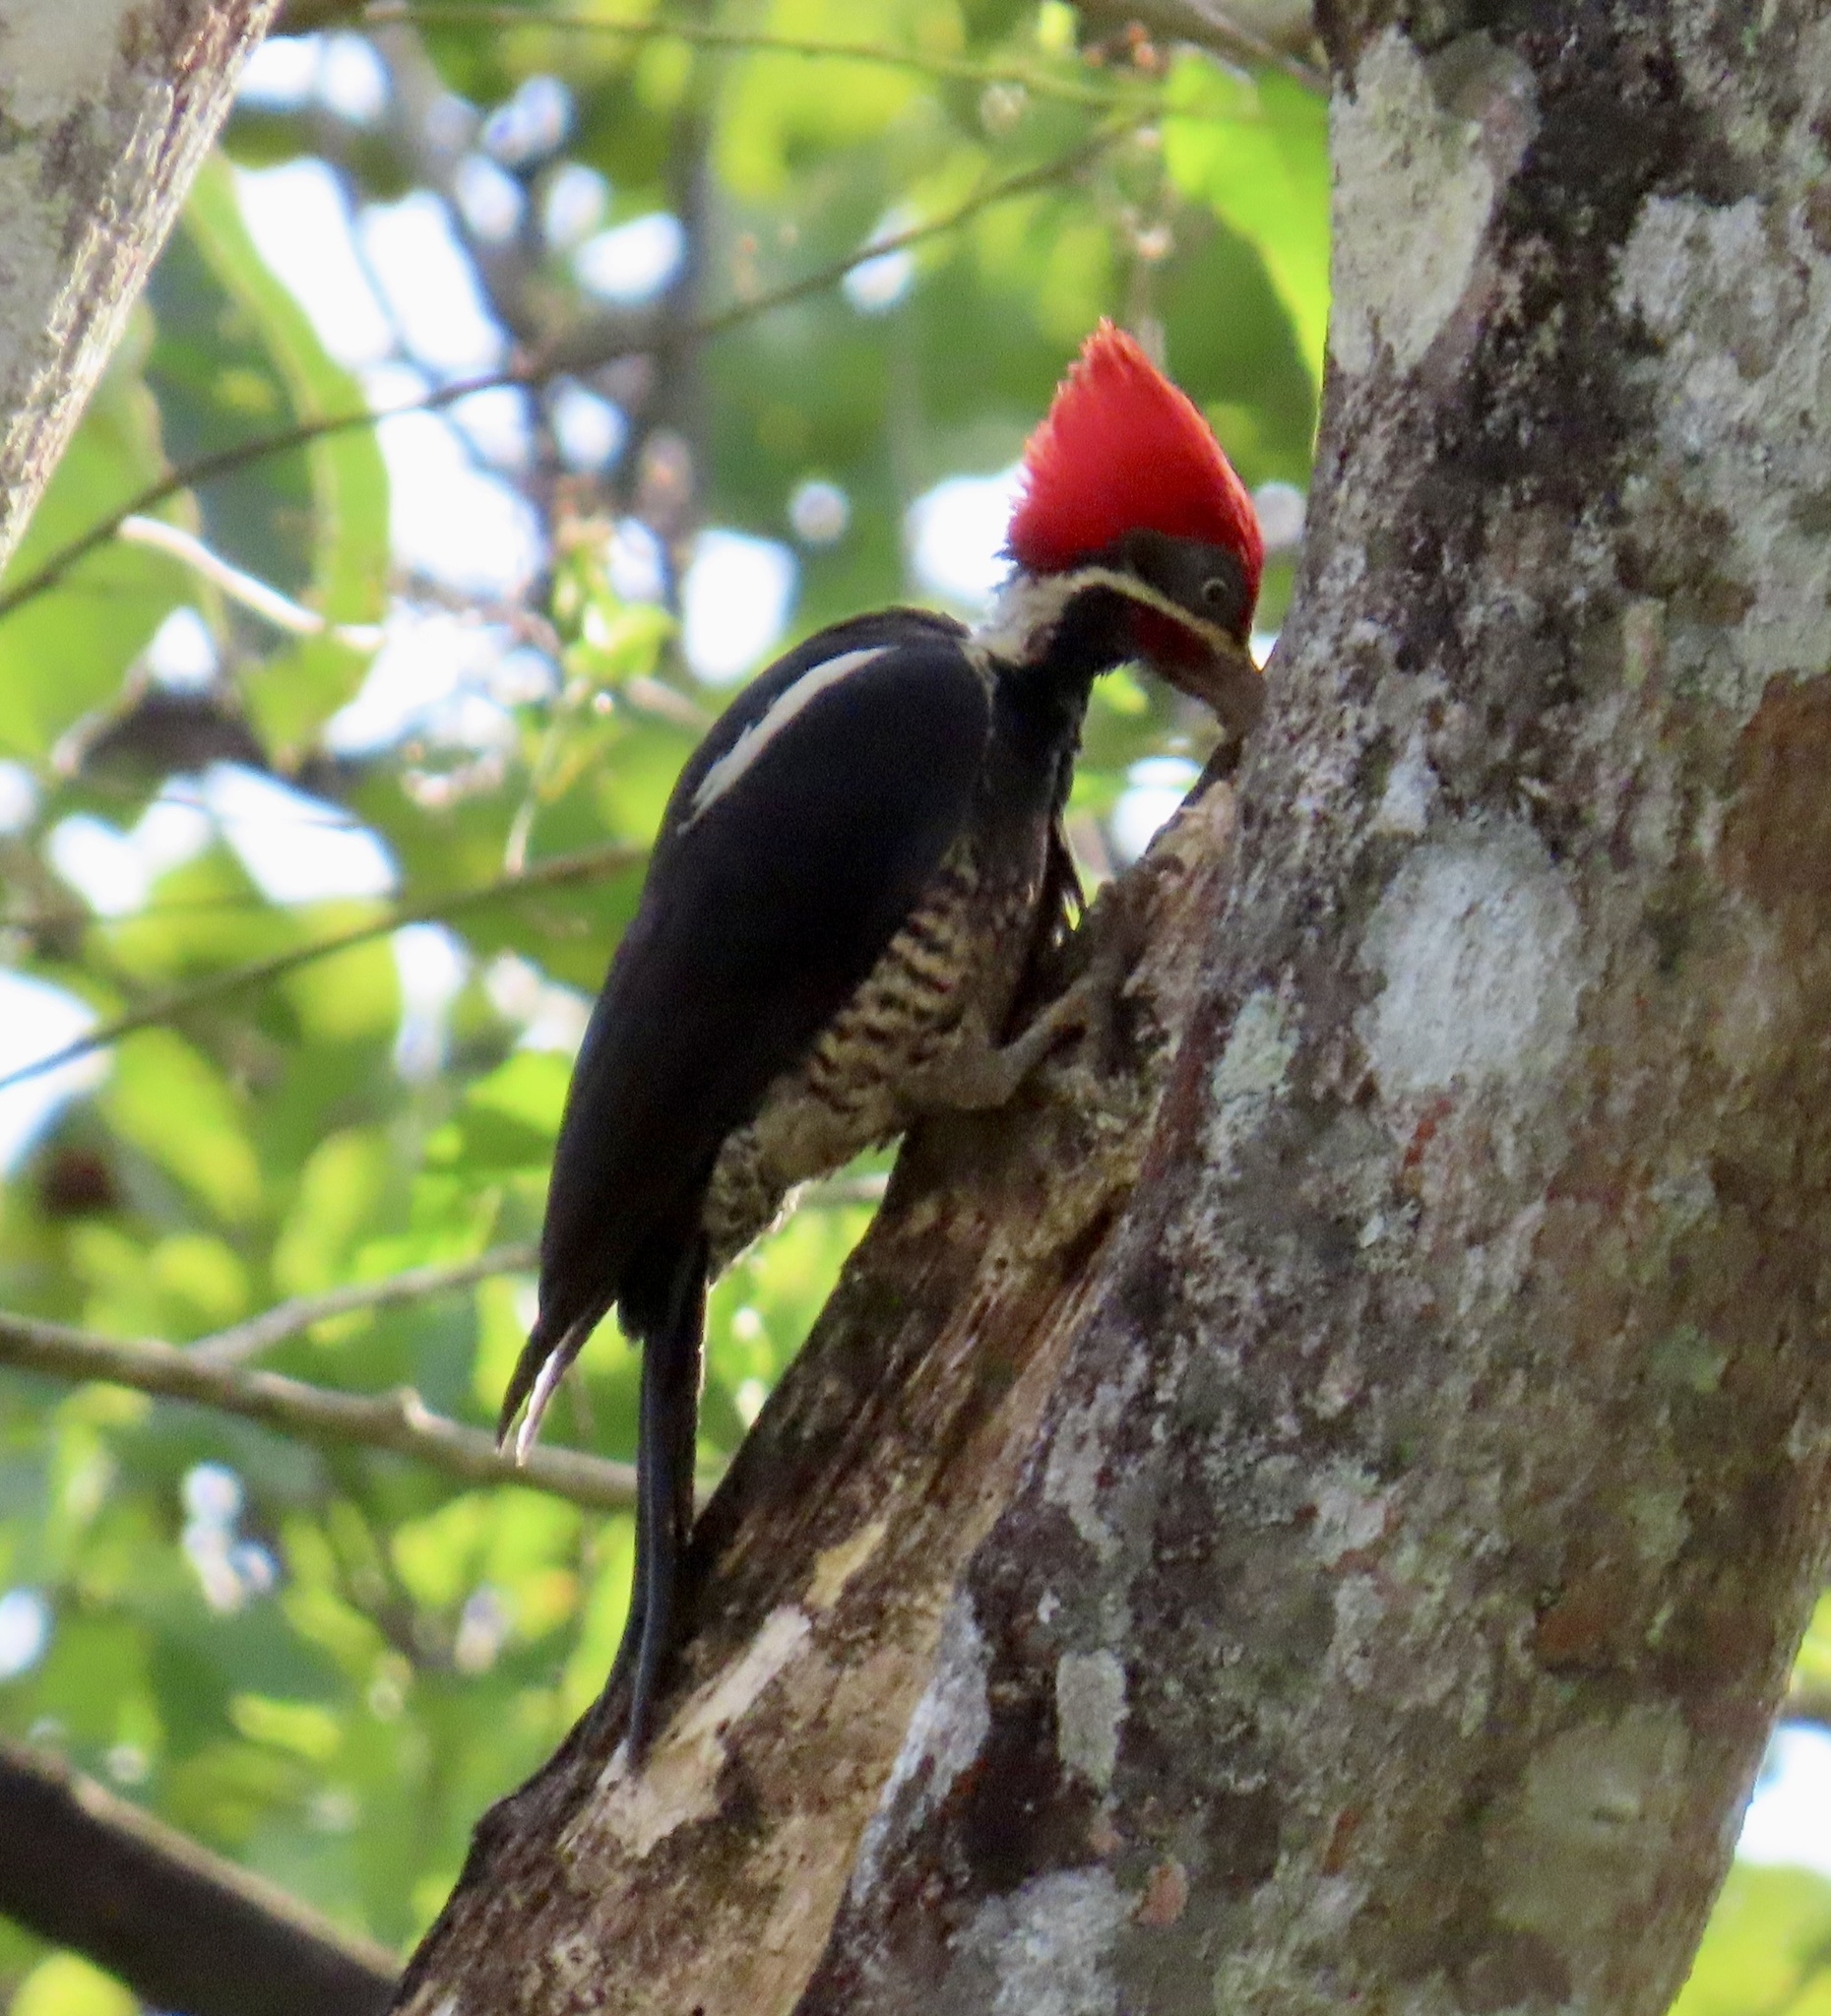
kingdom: Animalia
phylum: Chordata
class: Aves
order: Piciformes
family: Picidae
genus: Dryocopus
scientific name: Dryocopus lineatus
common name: Lineated woodpecker
